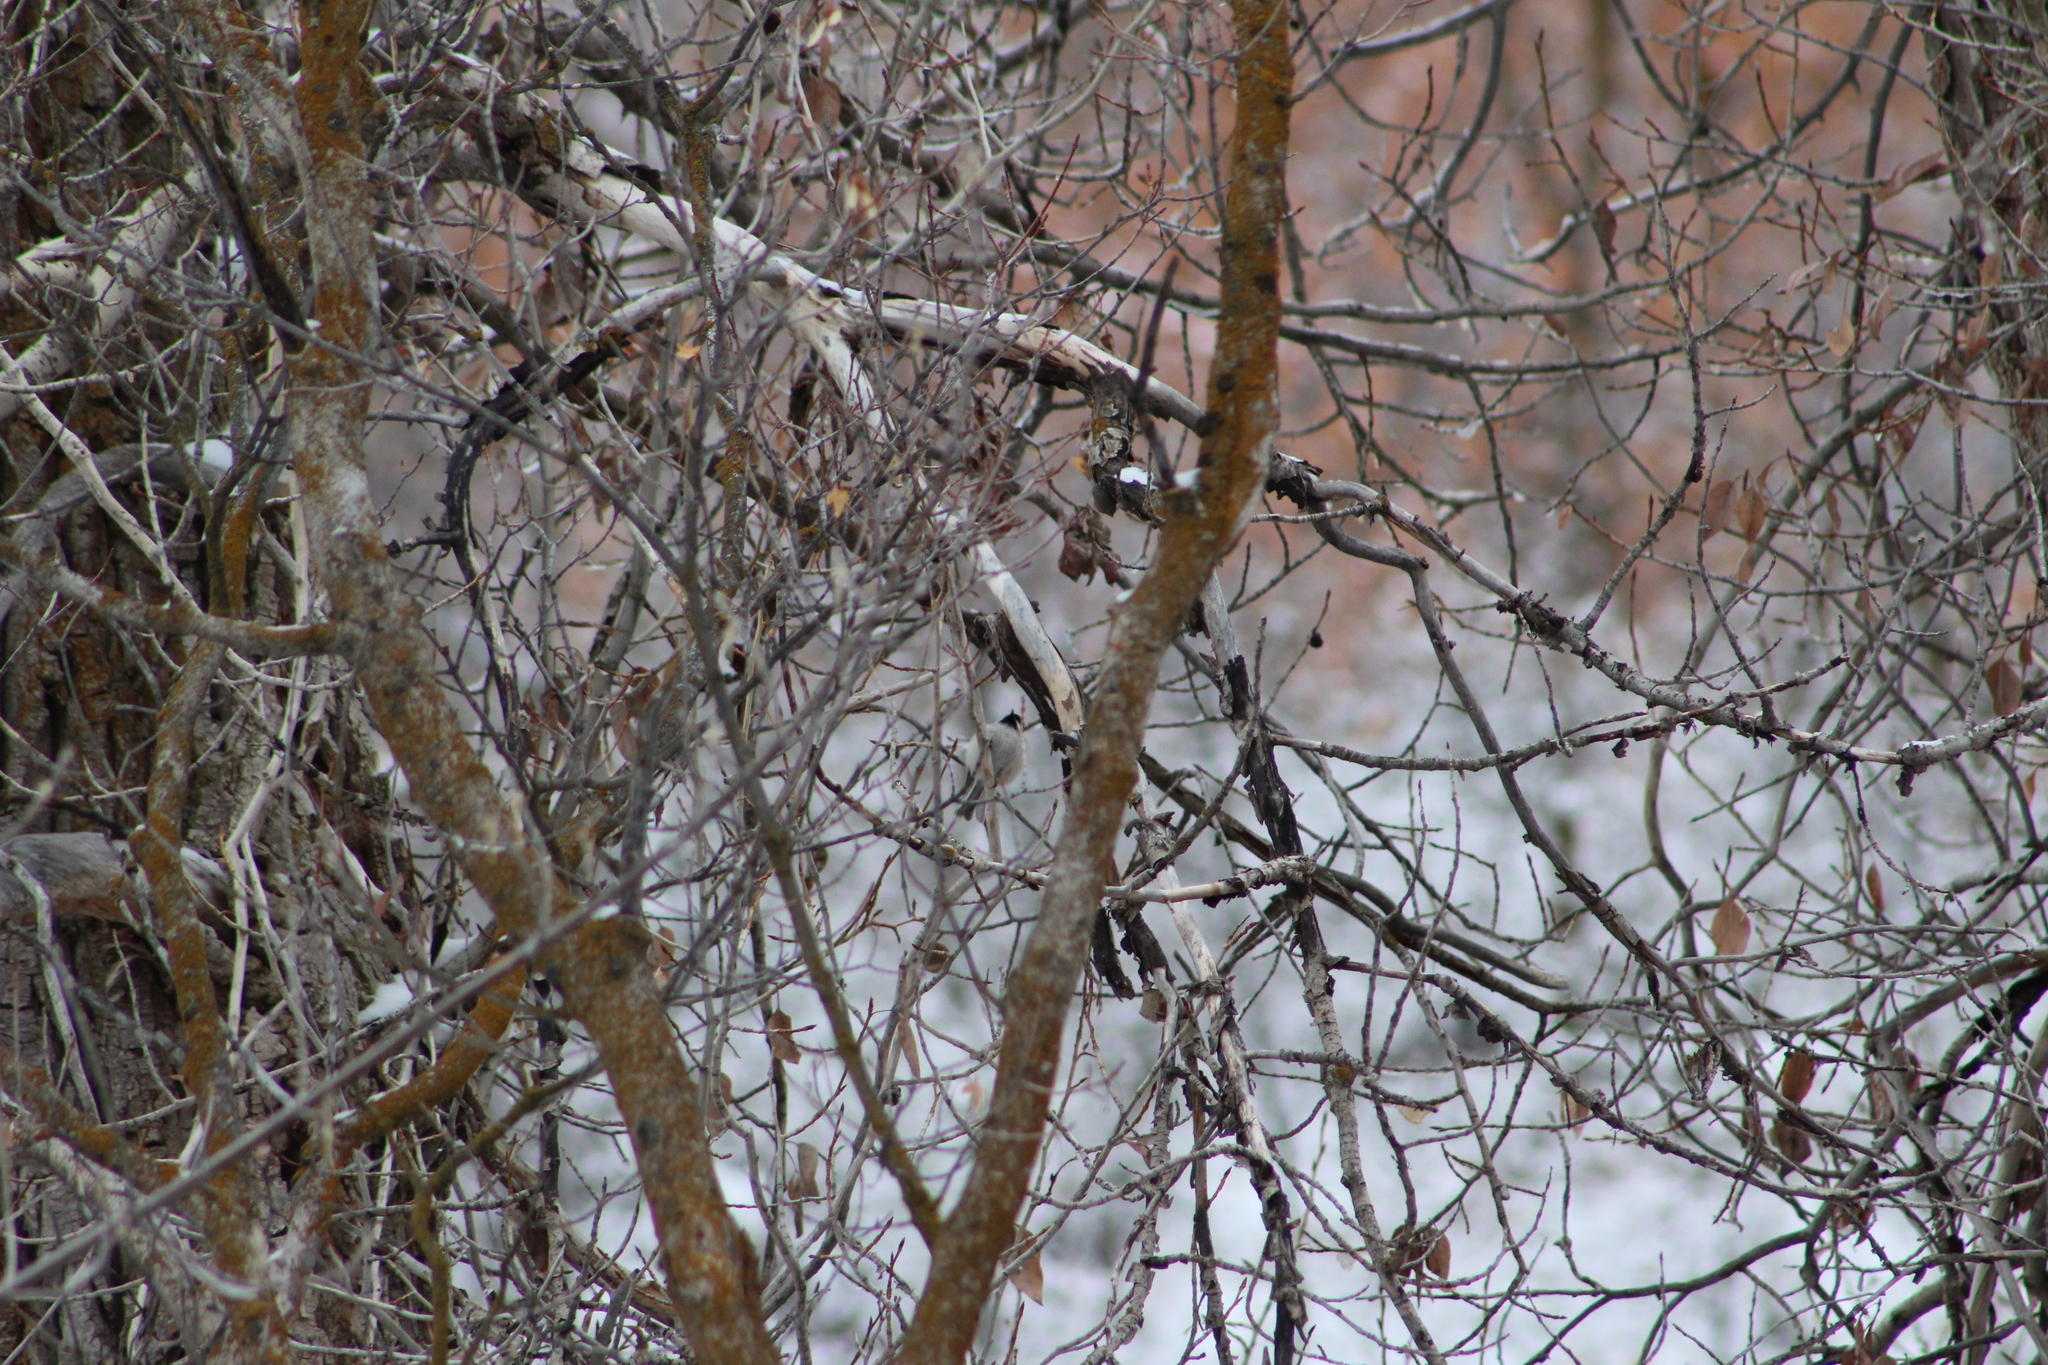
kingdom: Animalia
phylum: Chordata
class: Aves
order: Passeriformes
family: Paridae
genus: Poecile
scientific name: Poecile atricapillus
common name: Black-capped chickadee
